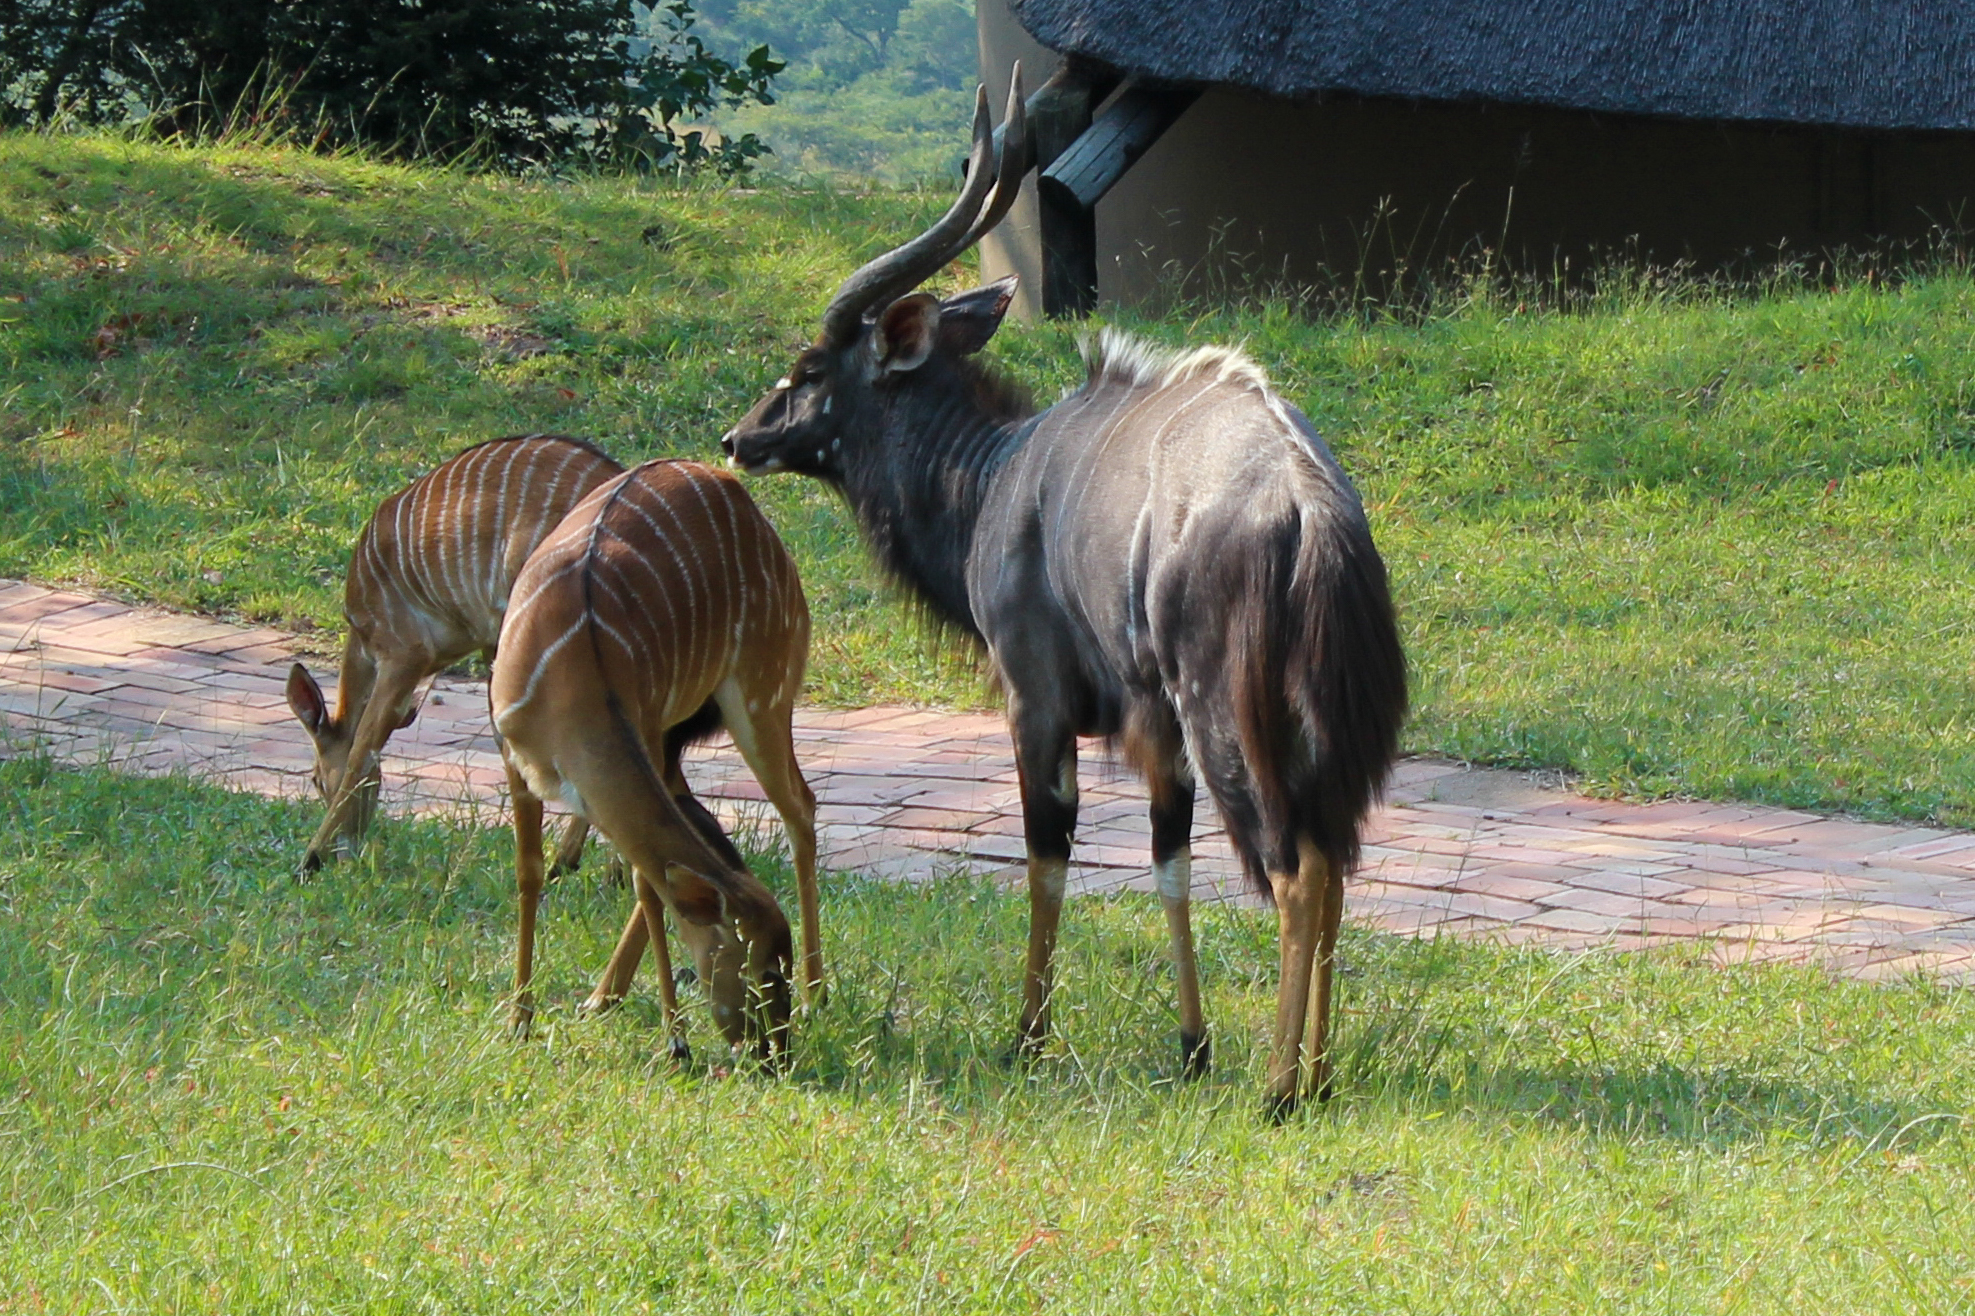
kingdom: Animalia
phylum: Chordata
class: Mammalia
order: Artiodactyla
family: Bovidae
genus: Tragelaphus
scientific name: Tragelaphus angasii
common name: Nyala
